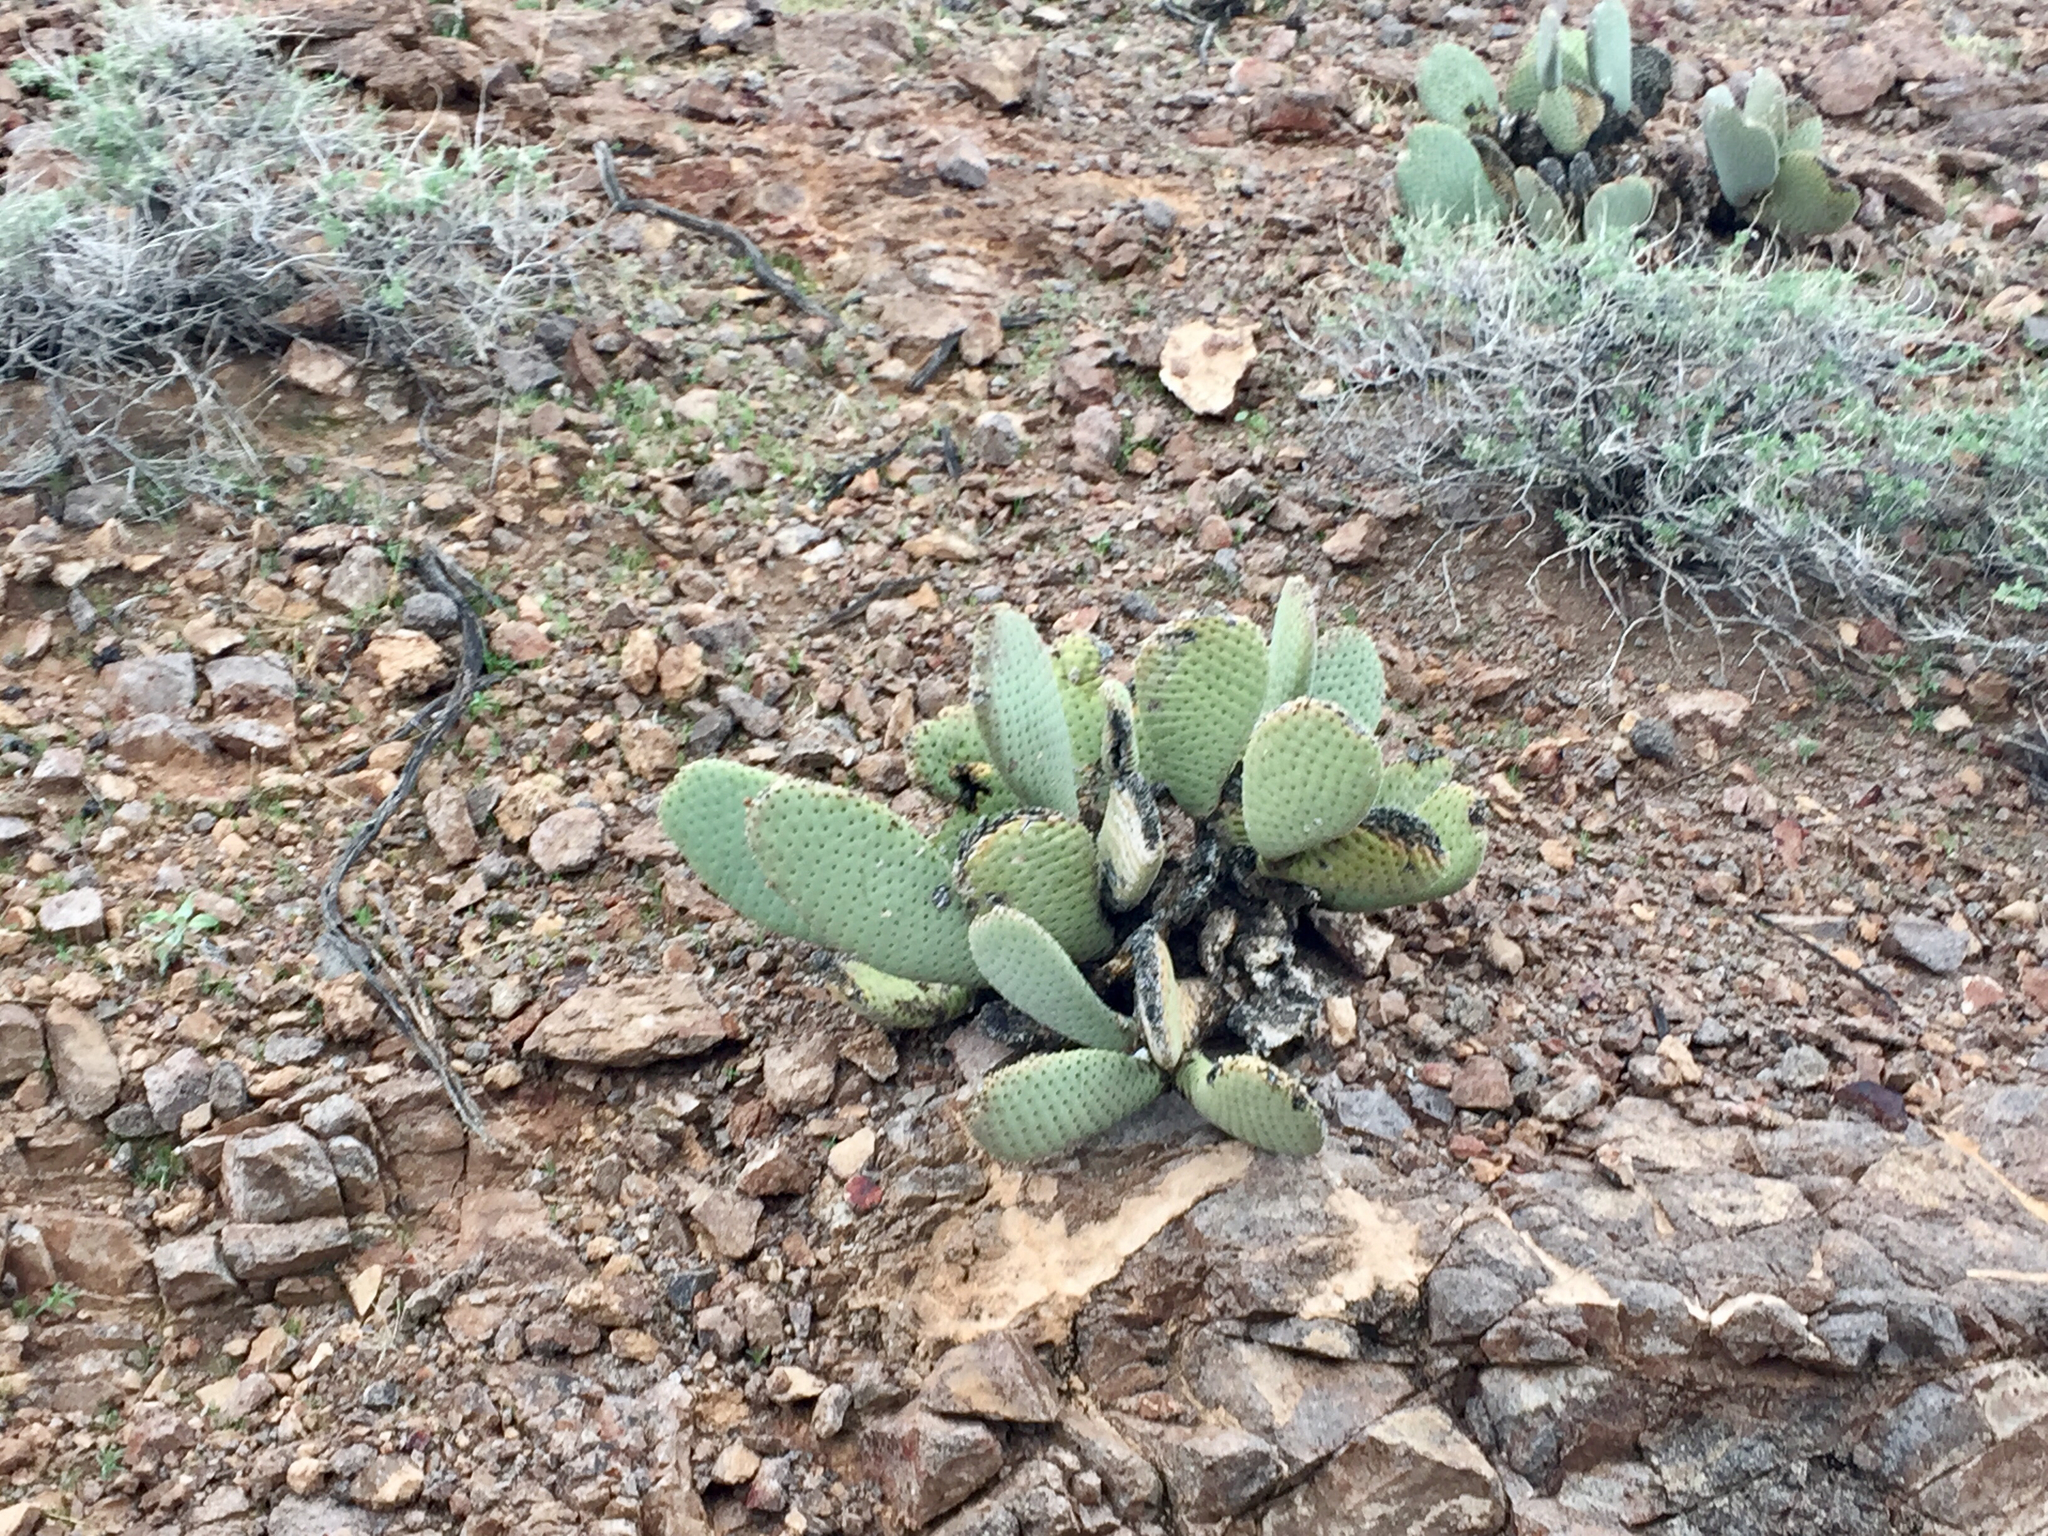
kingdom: Plantae
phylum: Tracheophyta
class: Magnoliopsida
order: Caryophyllales
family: Cactaceae
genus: Opuntia
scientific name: Opuntia basilaris
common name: Beavertail prickly-pear
